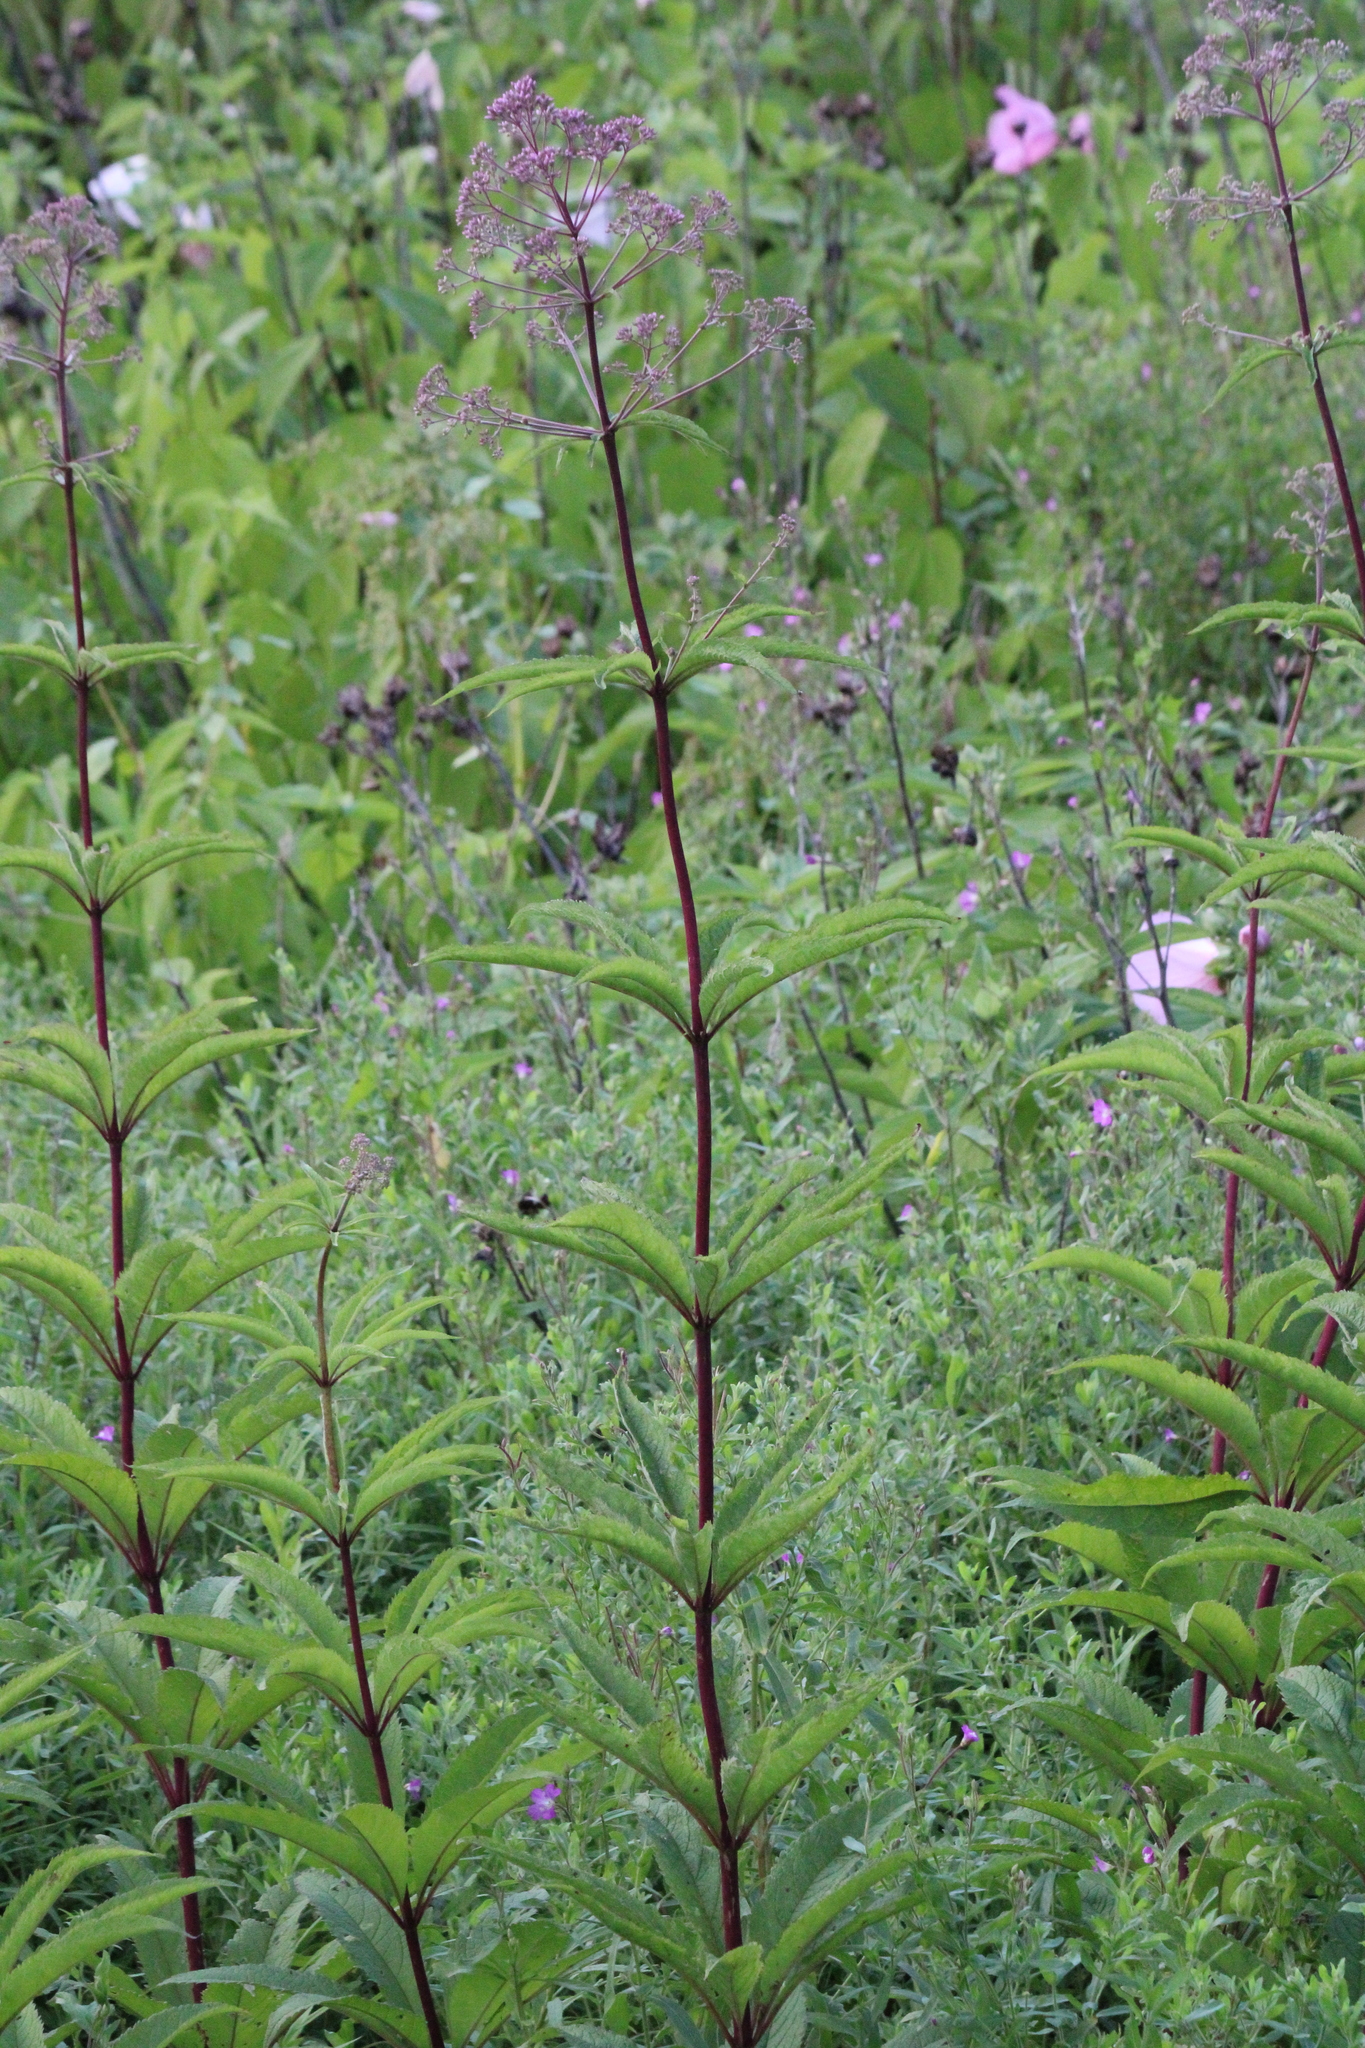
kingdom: Plantae
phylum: Tracheophyta
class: Magnoliopsida
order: Asterales
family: Asteraceae
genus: Eutrochium
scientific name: Eutrochium fistulosum
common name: Trumpetweed
